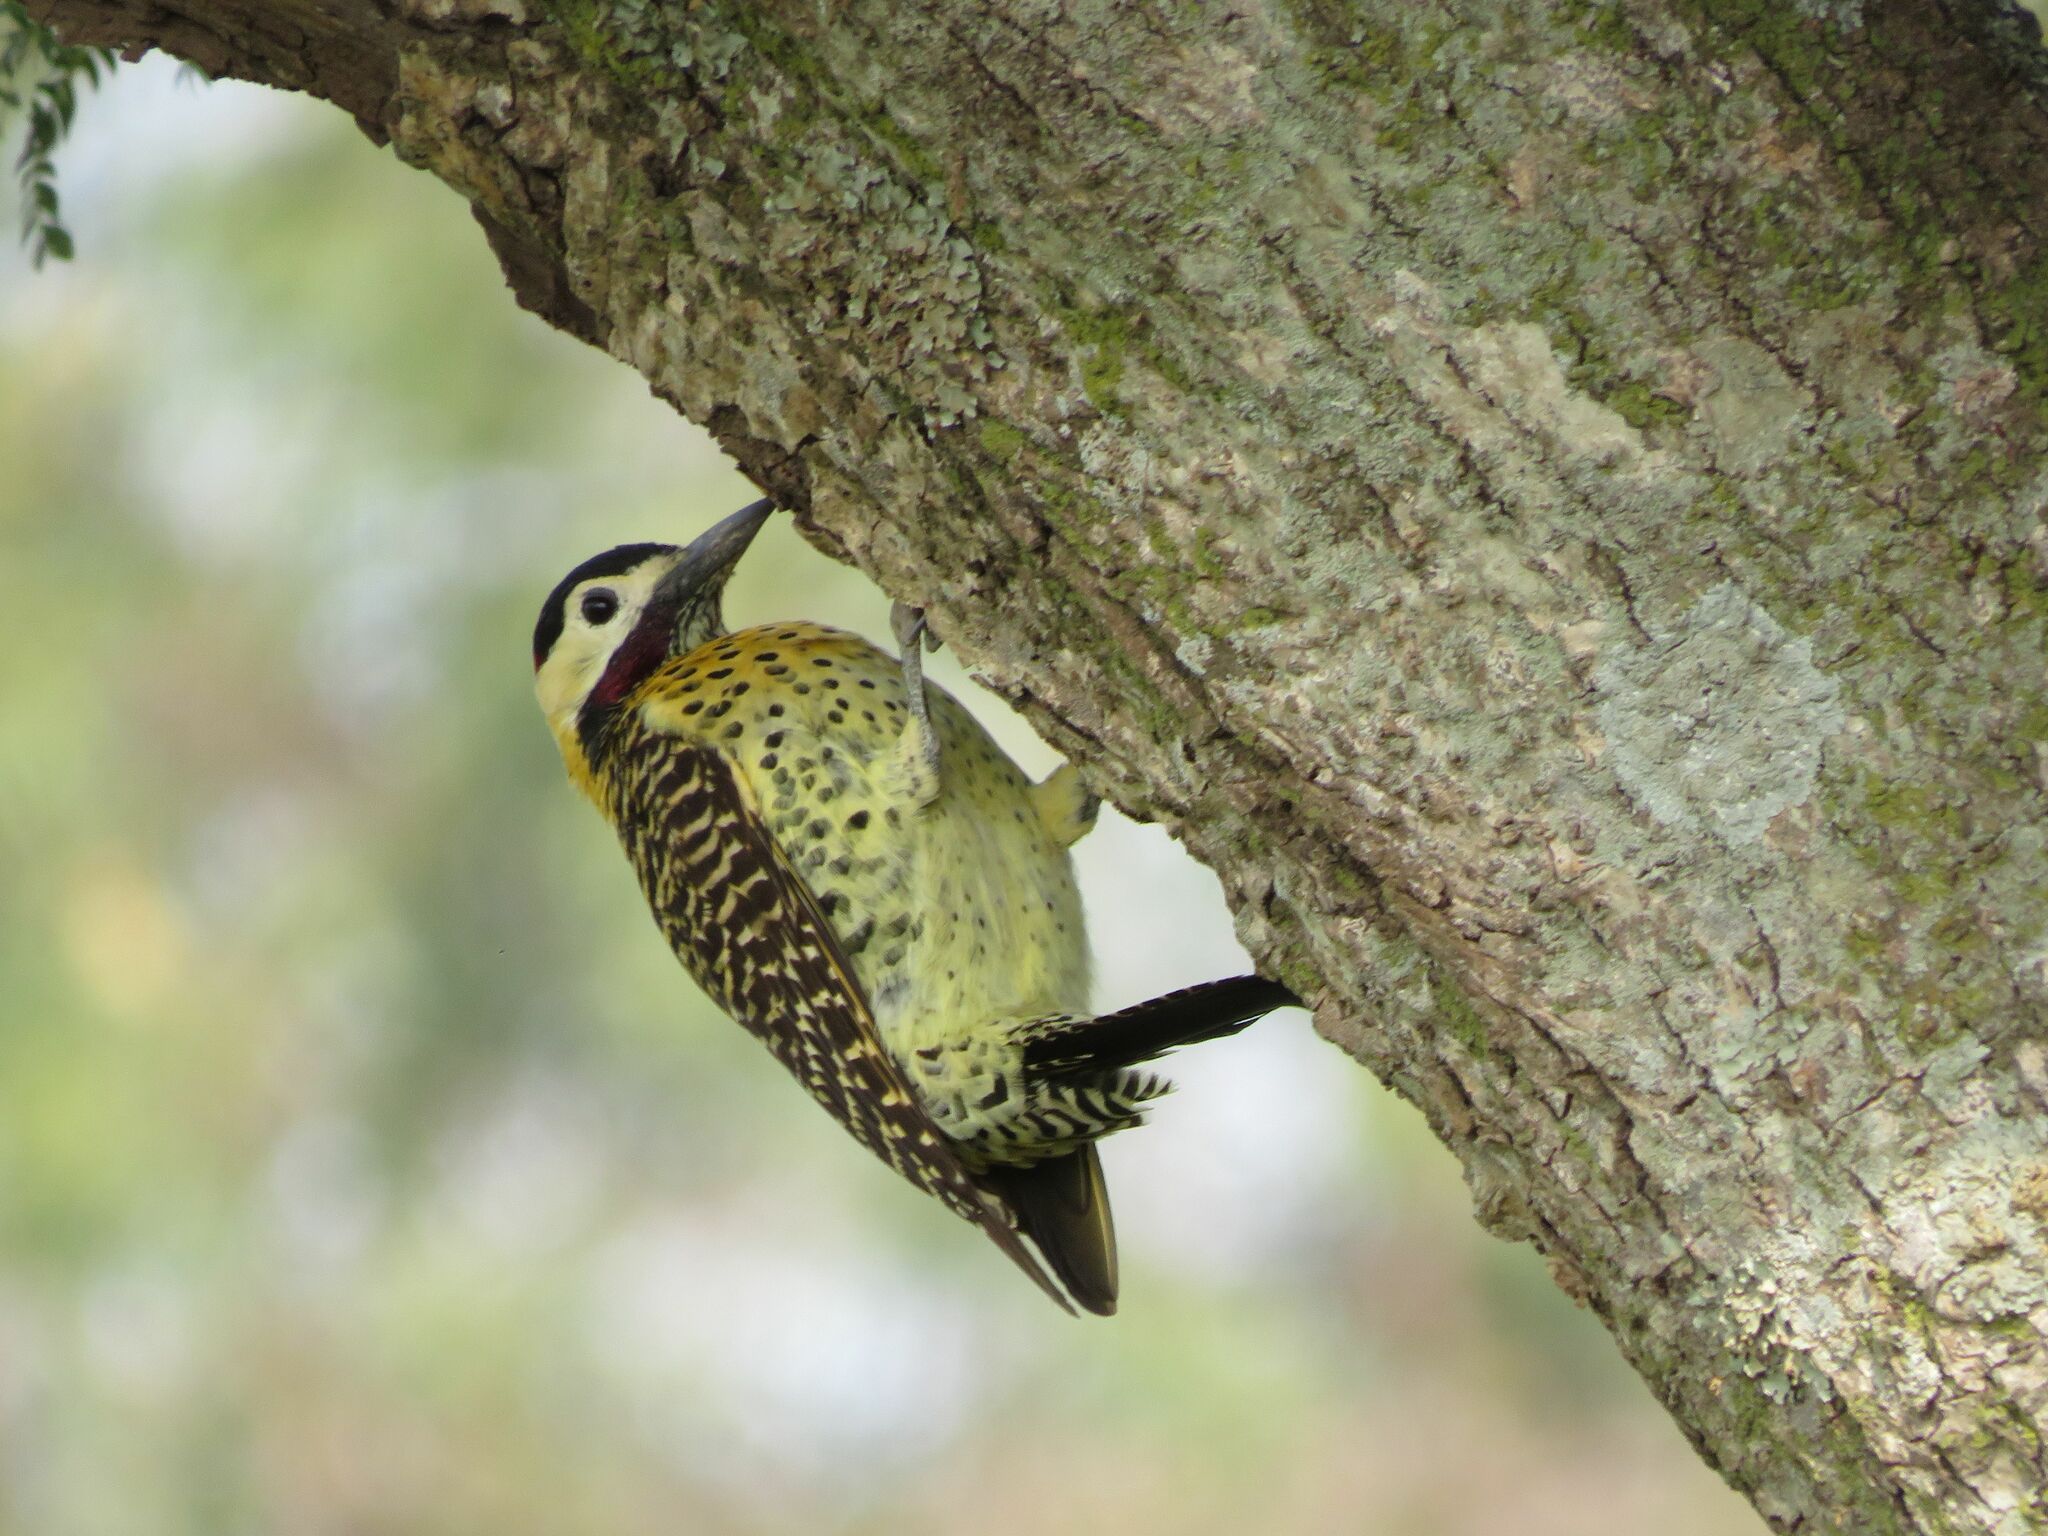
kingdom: Animalia
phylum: Chordata
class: Aves
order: Piciformes
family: Picidae
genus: Colaptes
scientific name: Colaptes melanochloros
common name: Green-barred woodpecker
